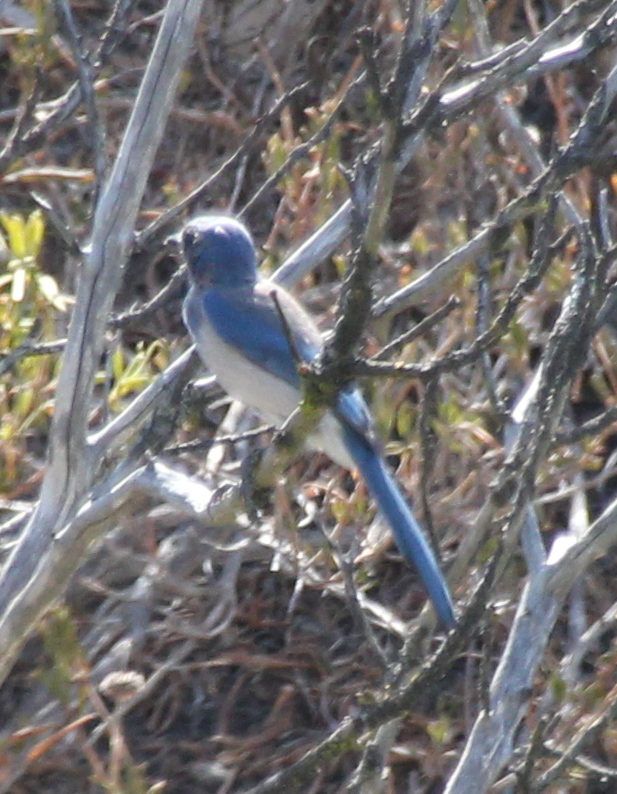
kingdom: Animalia
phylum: Chordata
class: Aves
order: Passeriformes
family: Corvidae
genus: Aphelocoma
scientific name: Aphelocoma californica
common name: California scrub-jay
